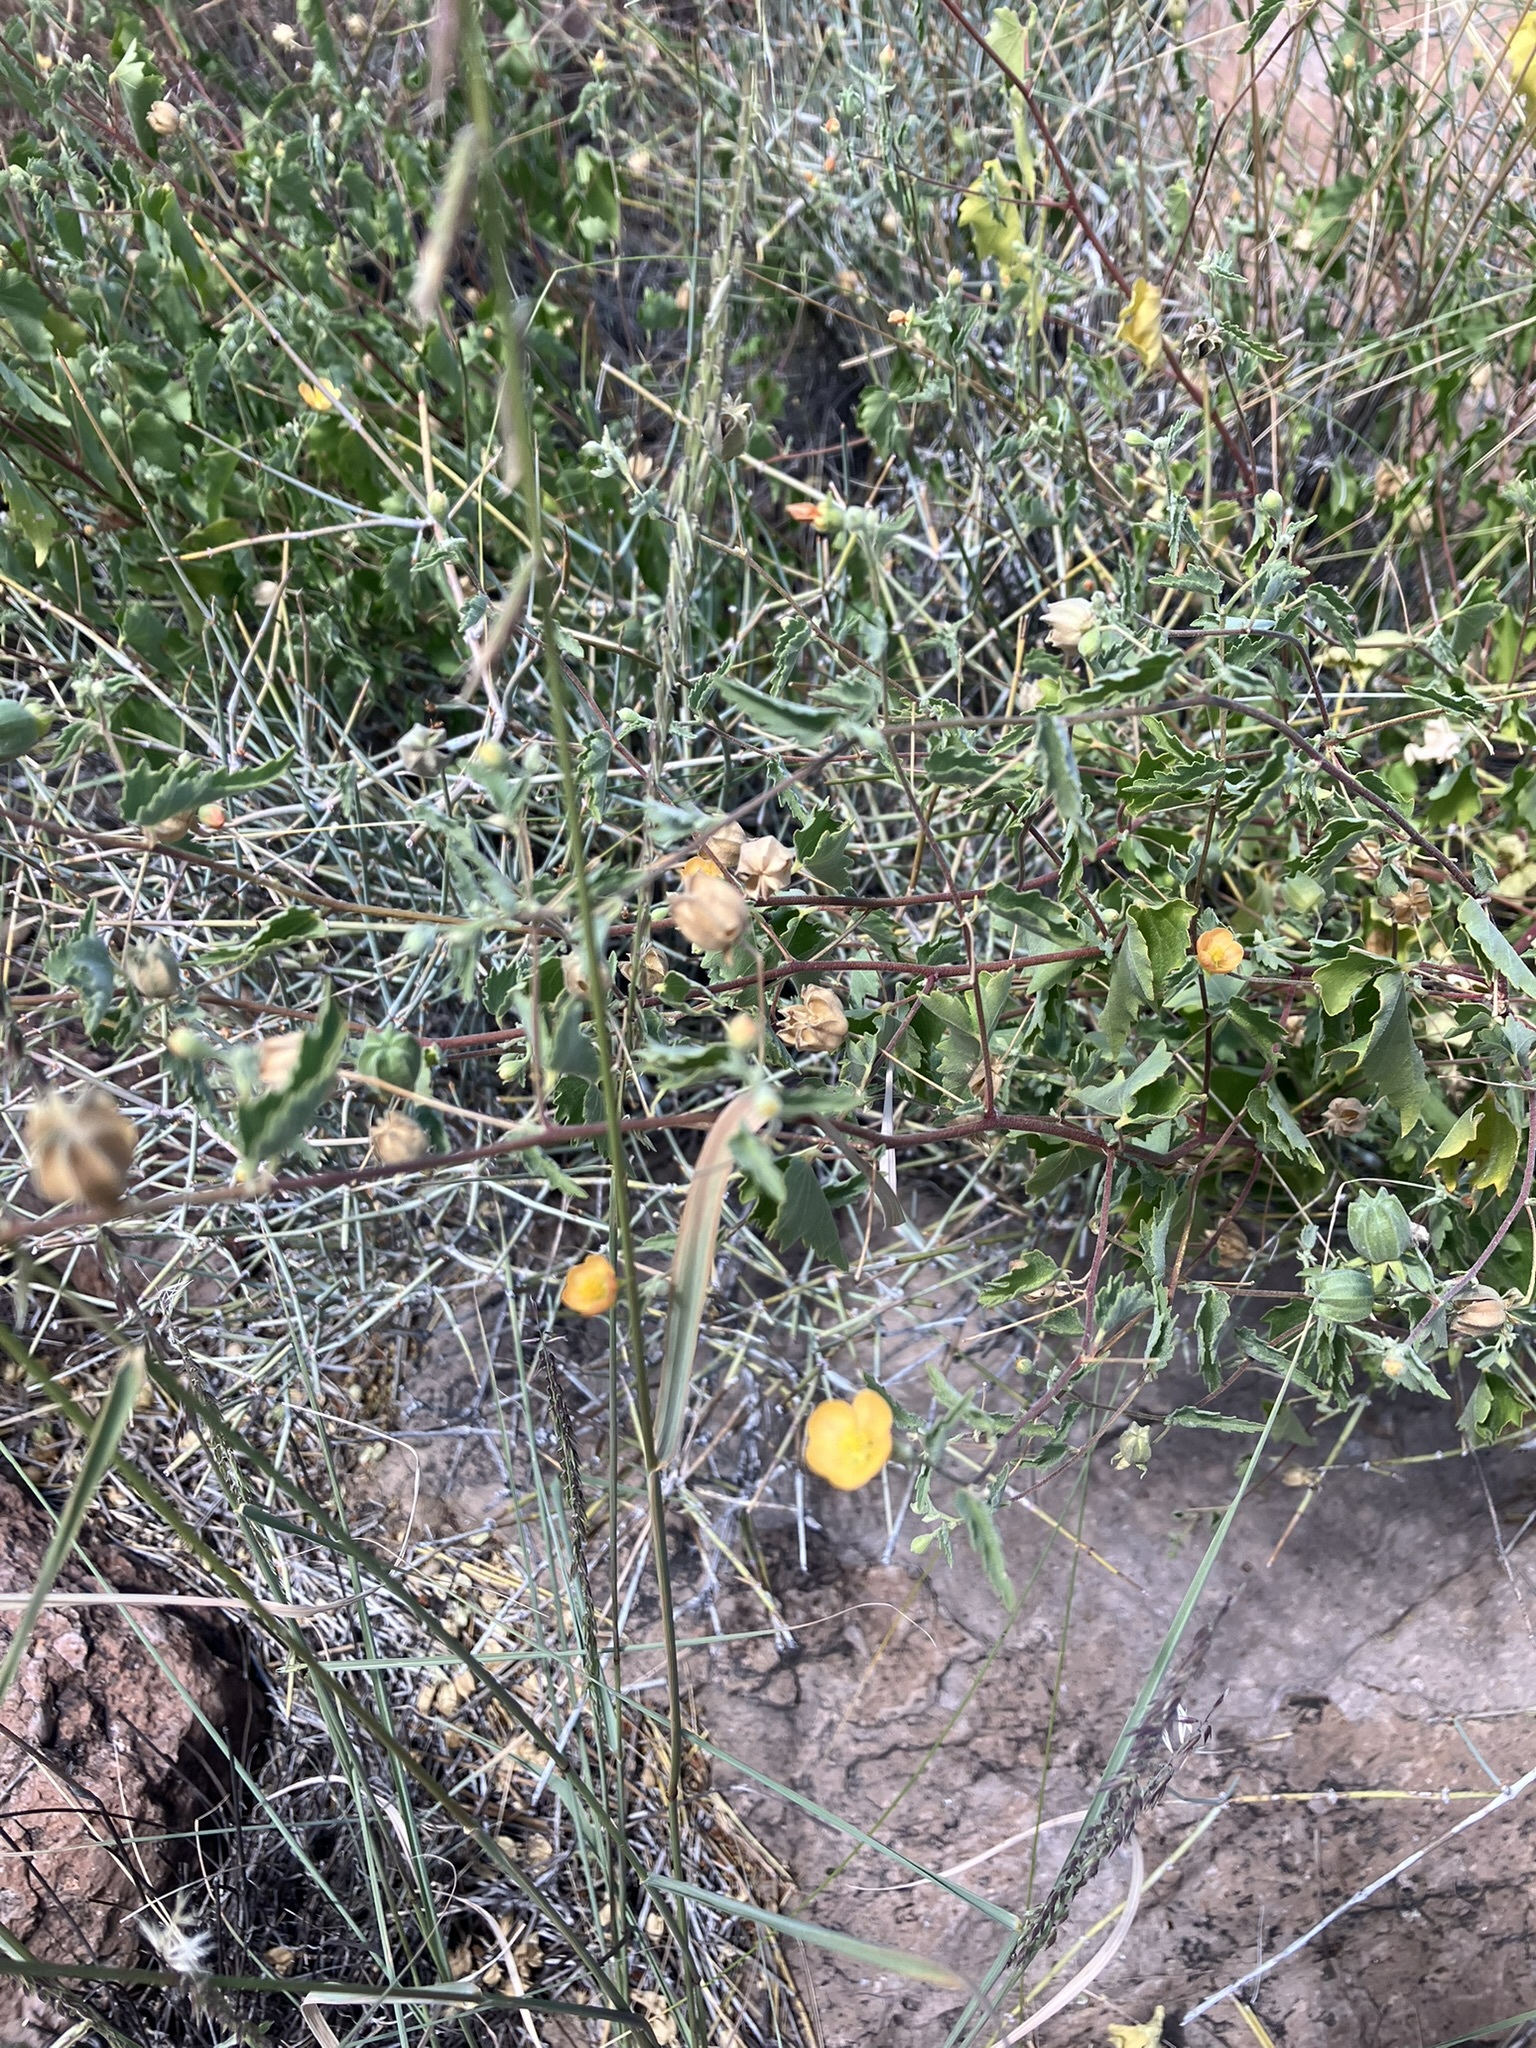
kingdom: Plantae
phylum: Tracheophyta
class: Magnoliopsida
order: Malvales
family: Malvaceae
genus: Abutilon
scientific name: Abutilon parvulum
